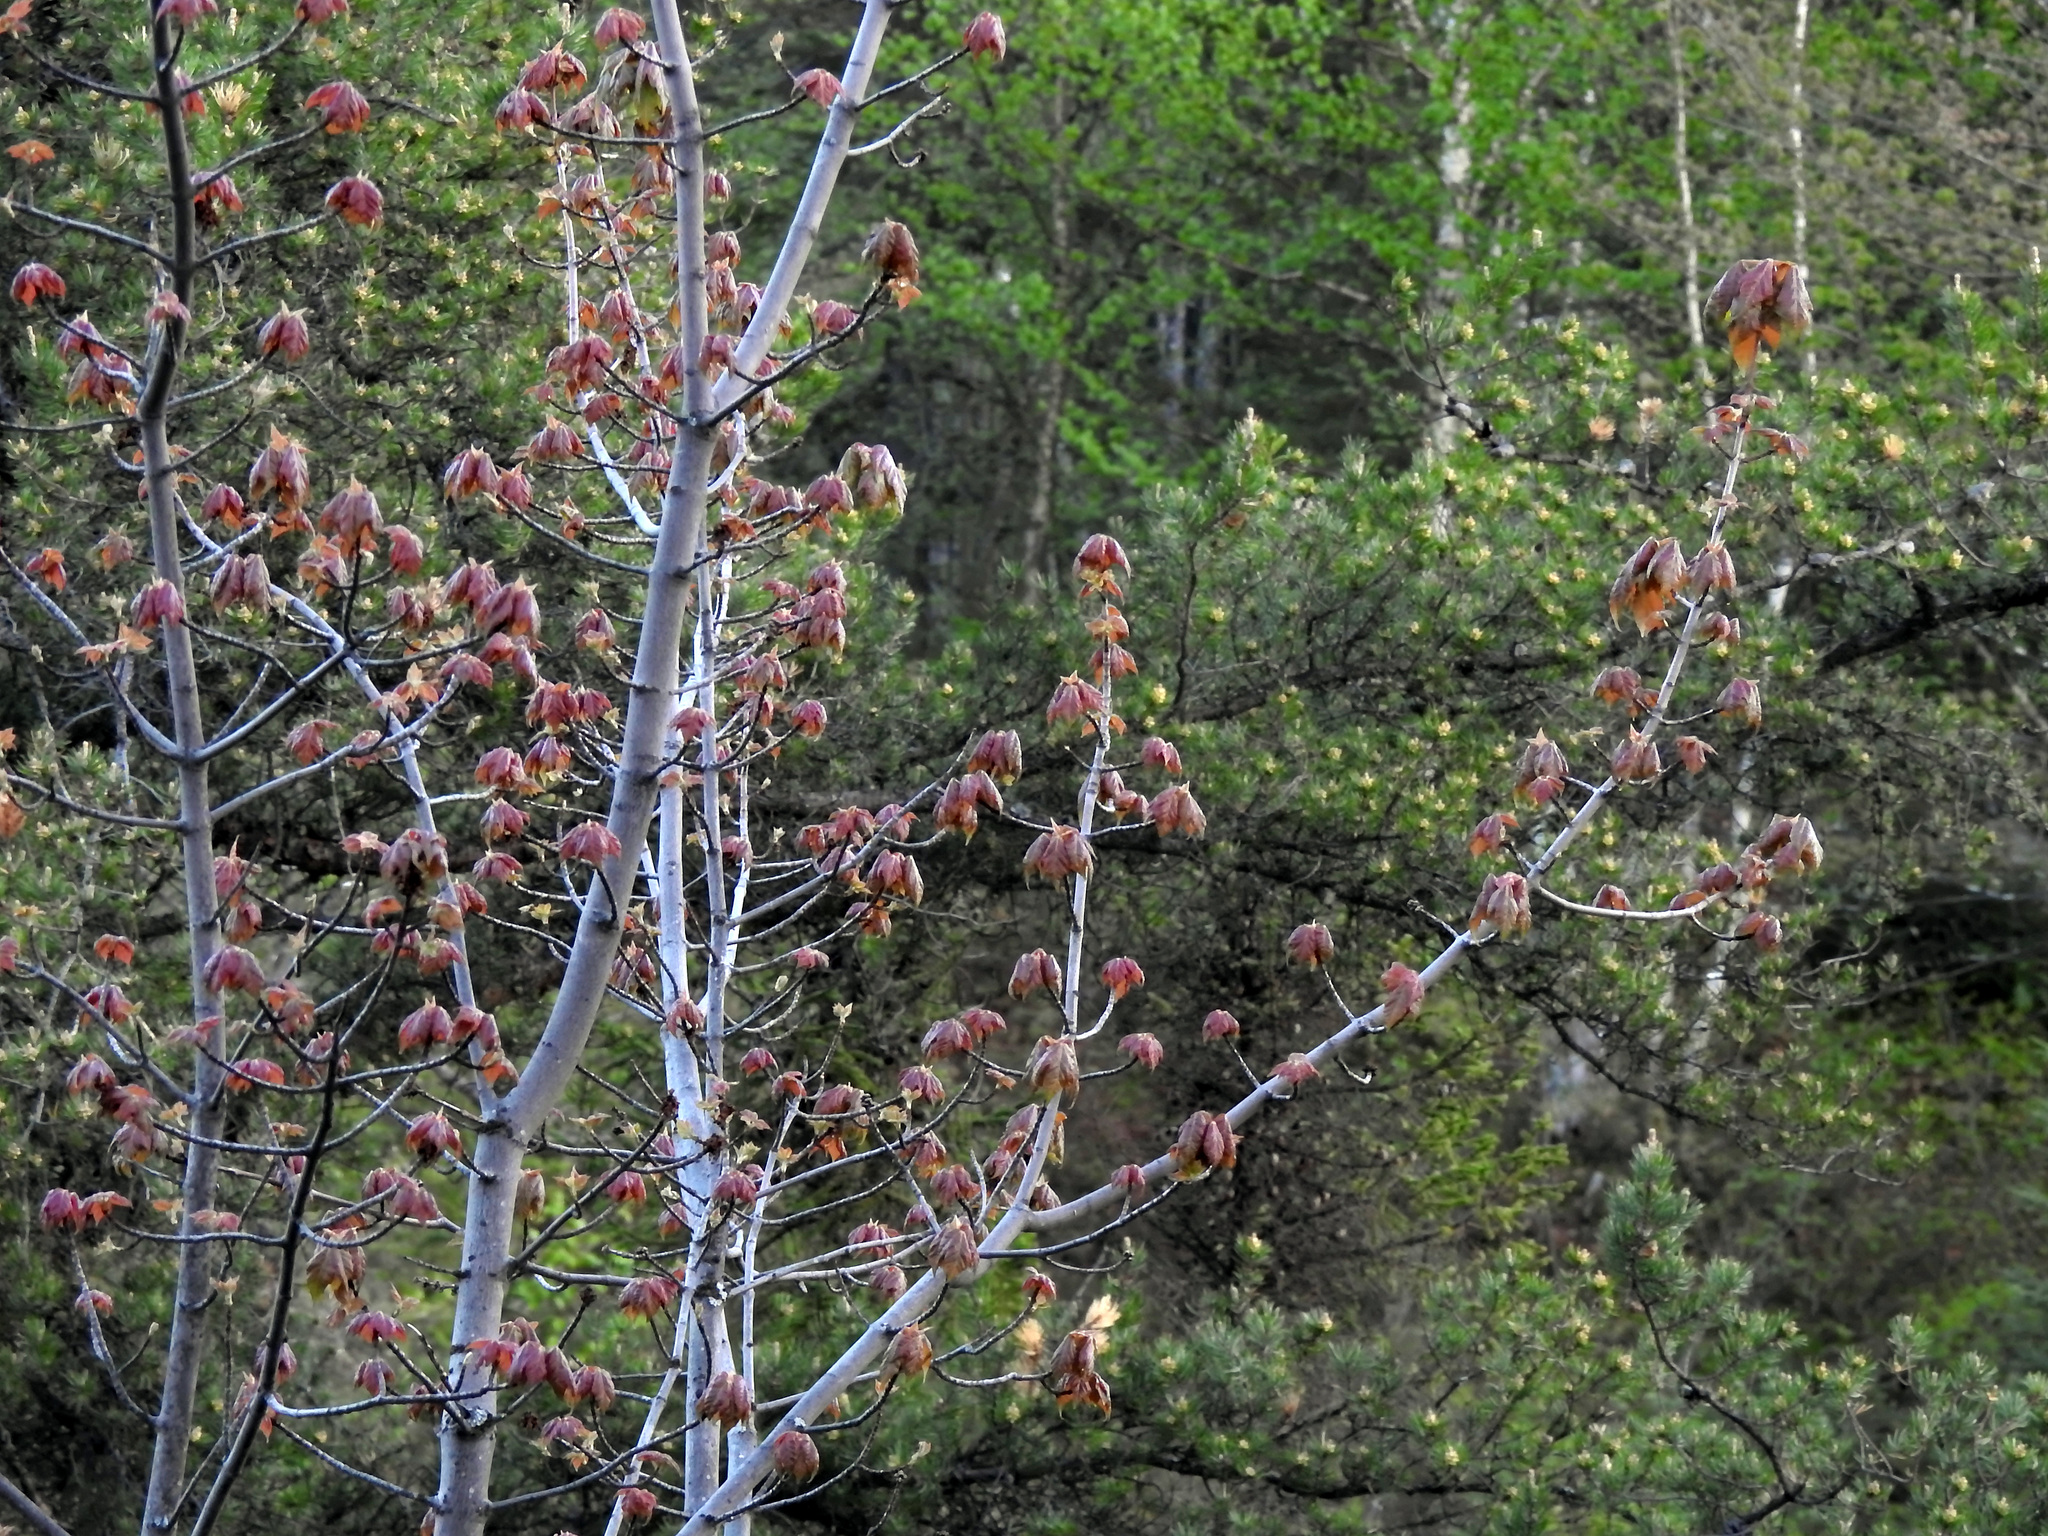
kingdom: Plantae
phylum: Tracheophyta
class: Magnoliopsida
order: Sapindales
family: Sapindaceae
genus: Acer
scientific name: Acer rubrum
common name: Red maple
